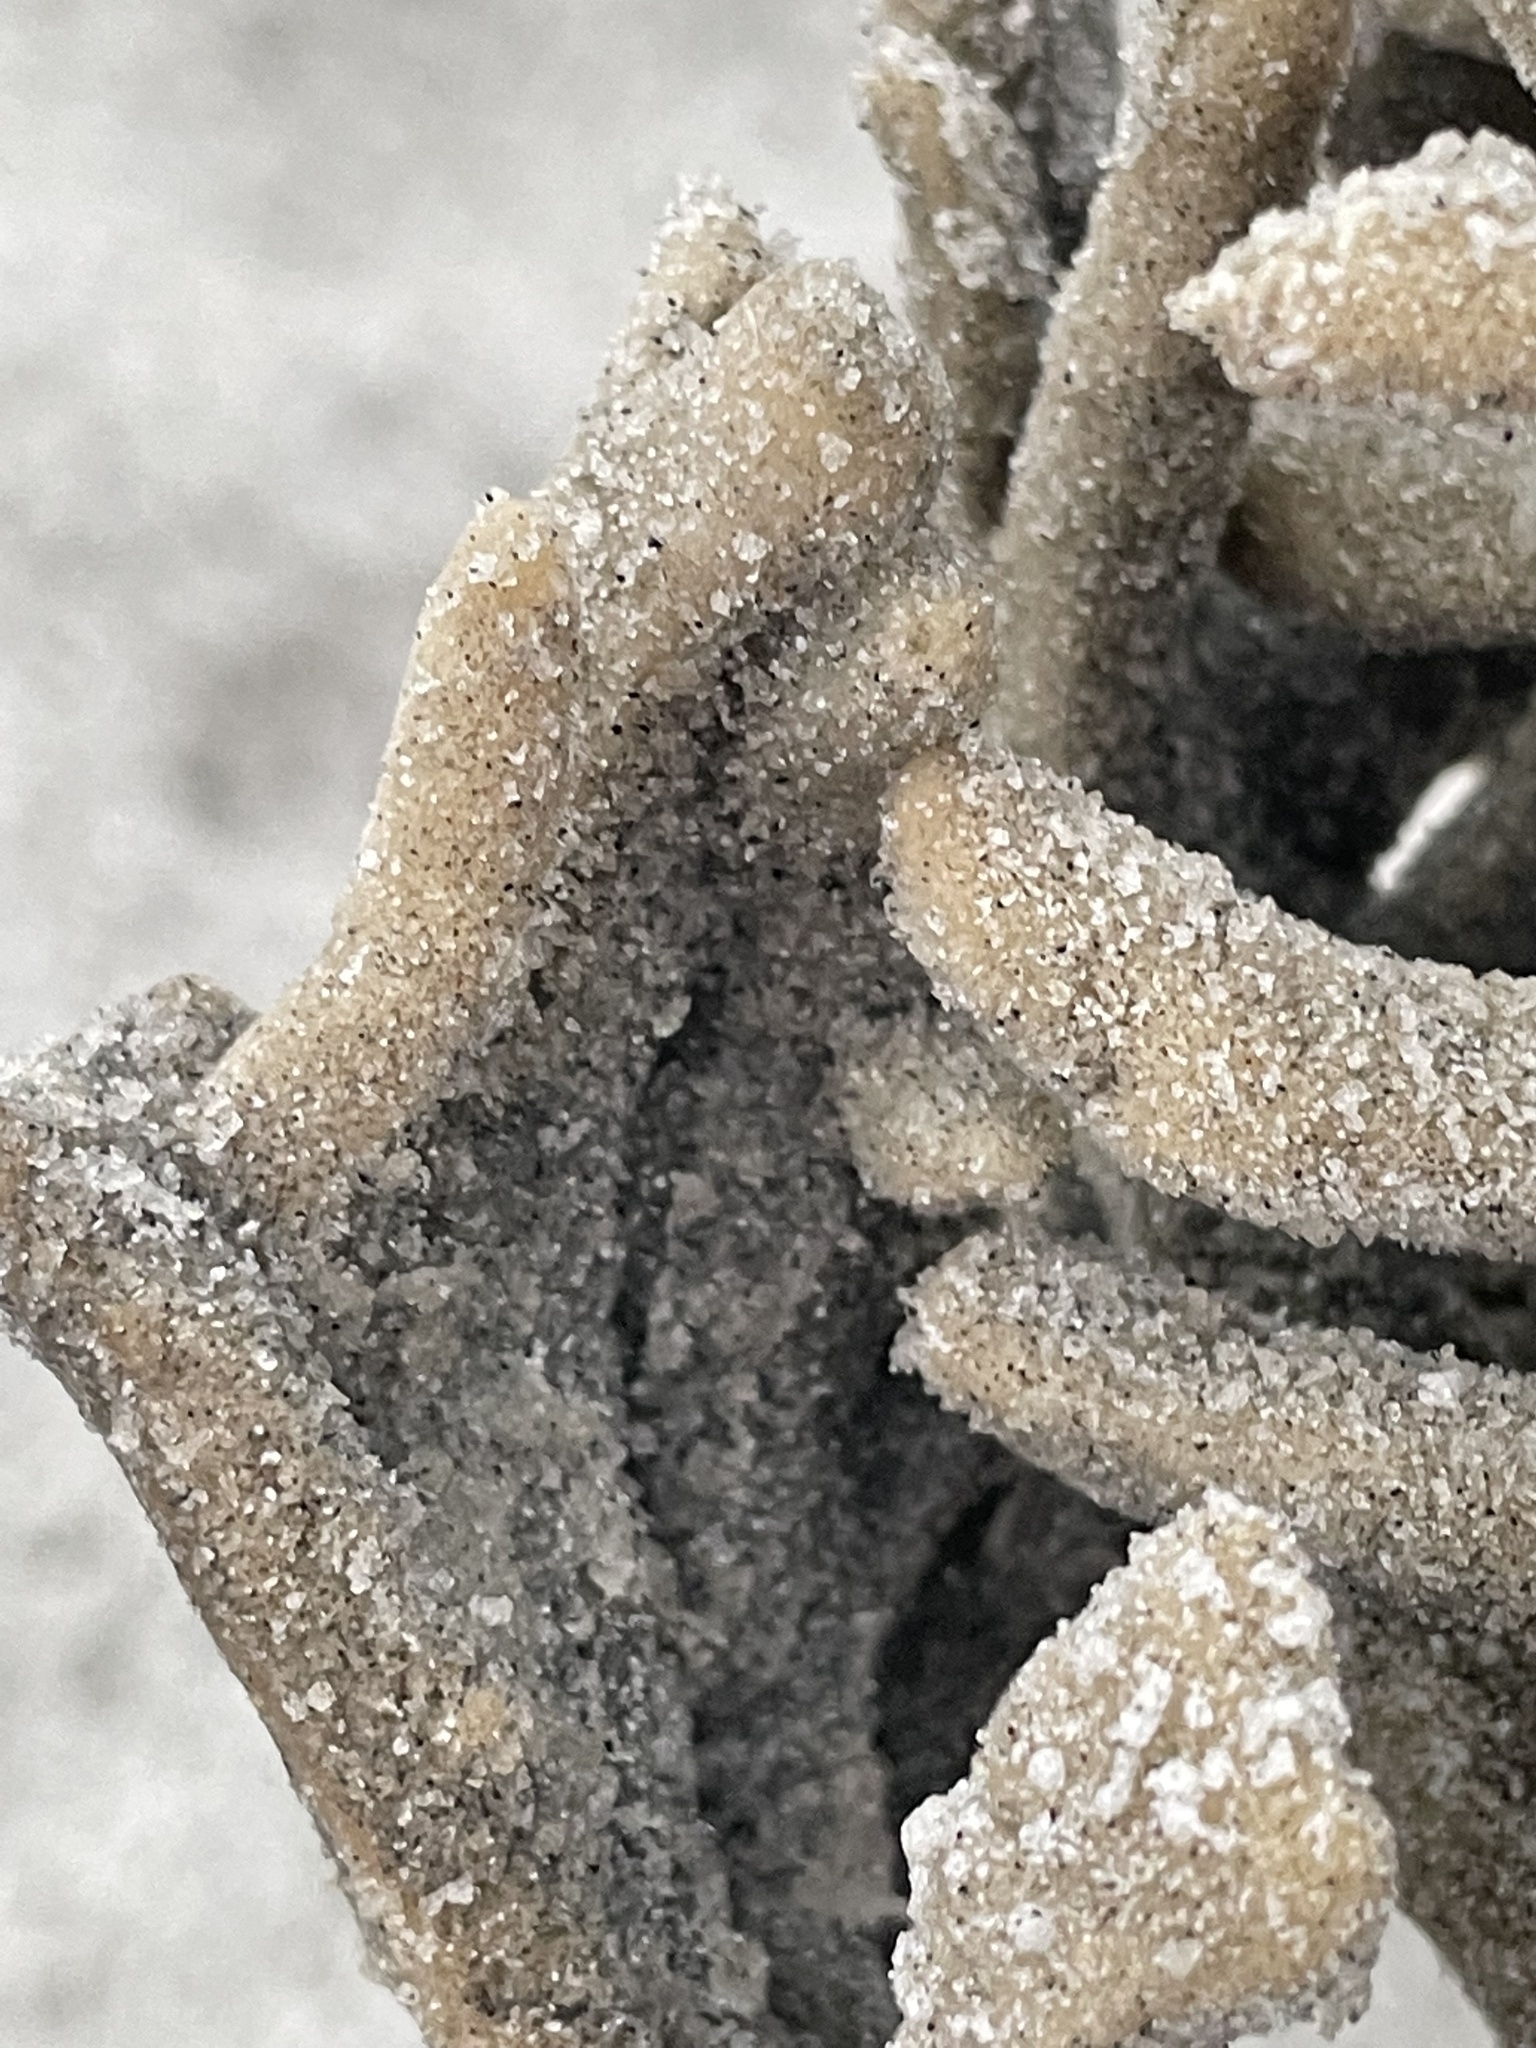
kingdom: Animalia
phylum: Porifera
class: Demospongiae
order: Haplosclerida
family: Chalinidae
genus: Haliclona
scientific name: Haliclona oculata
